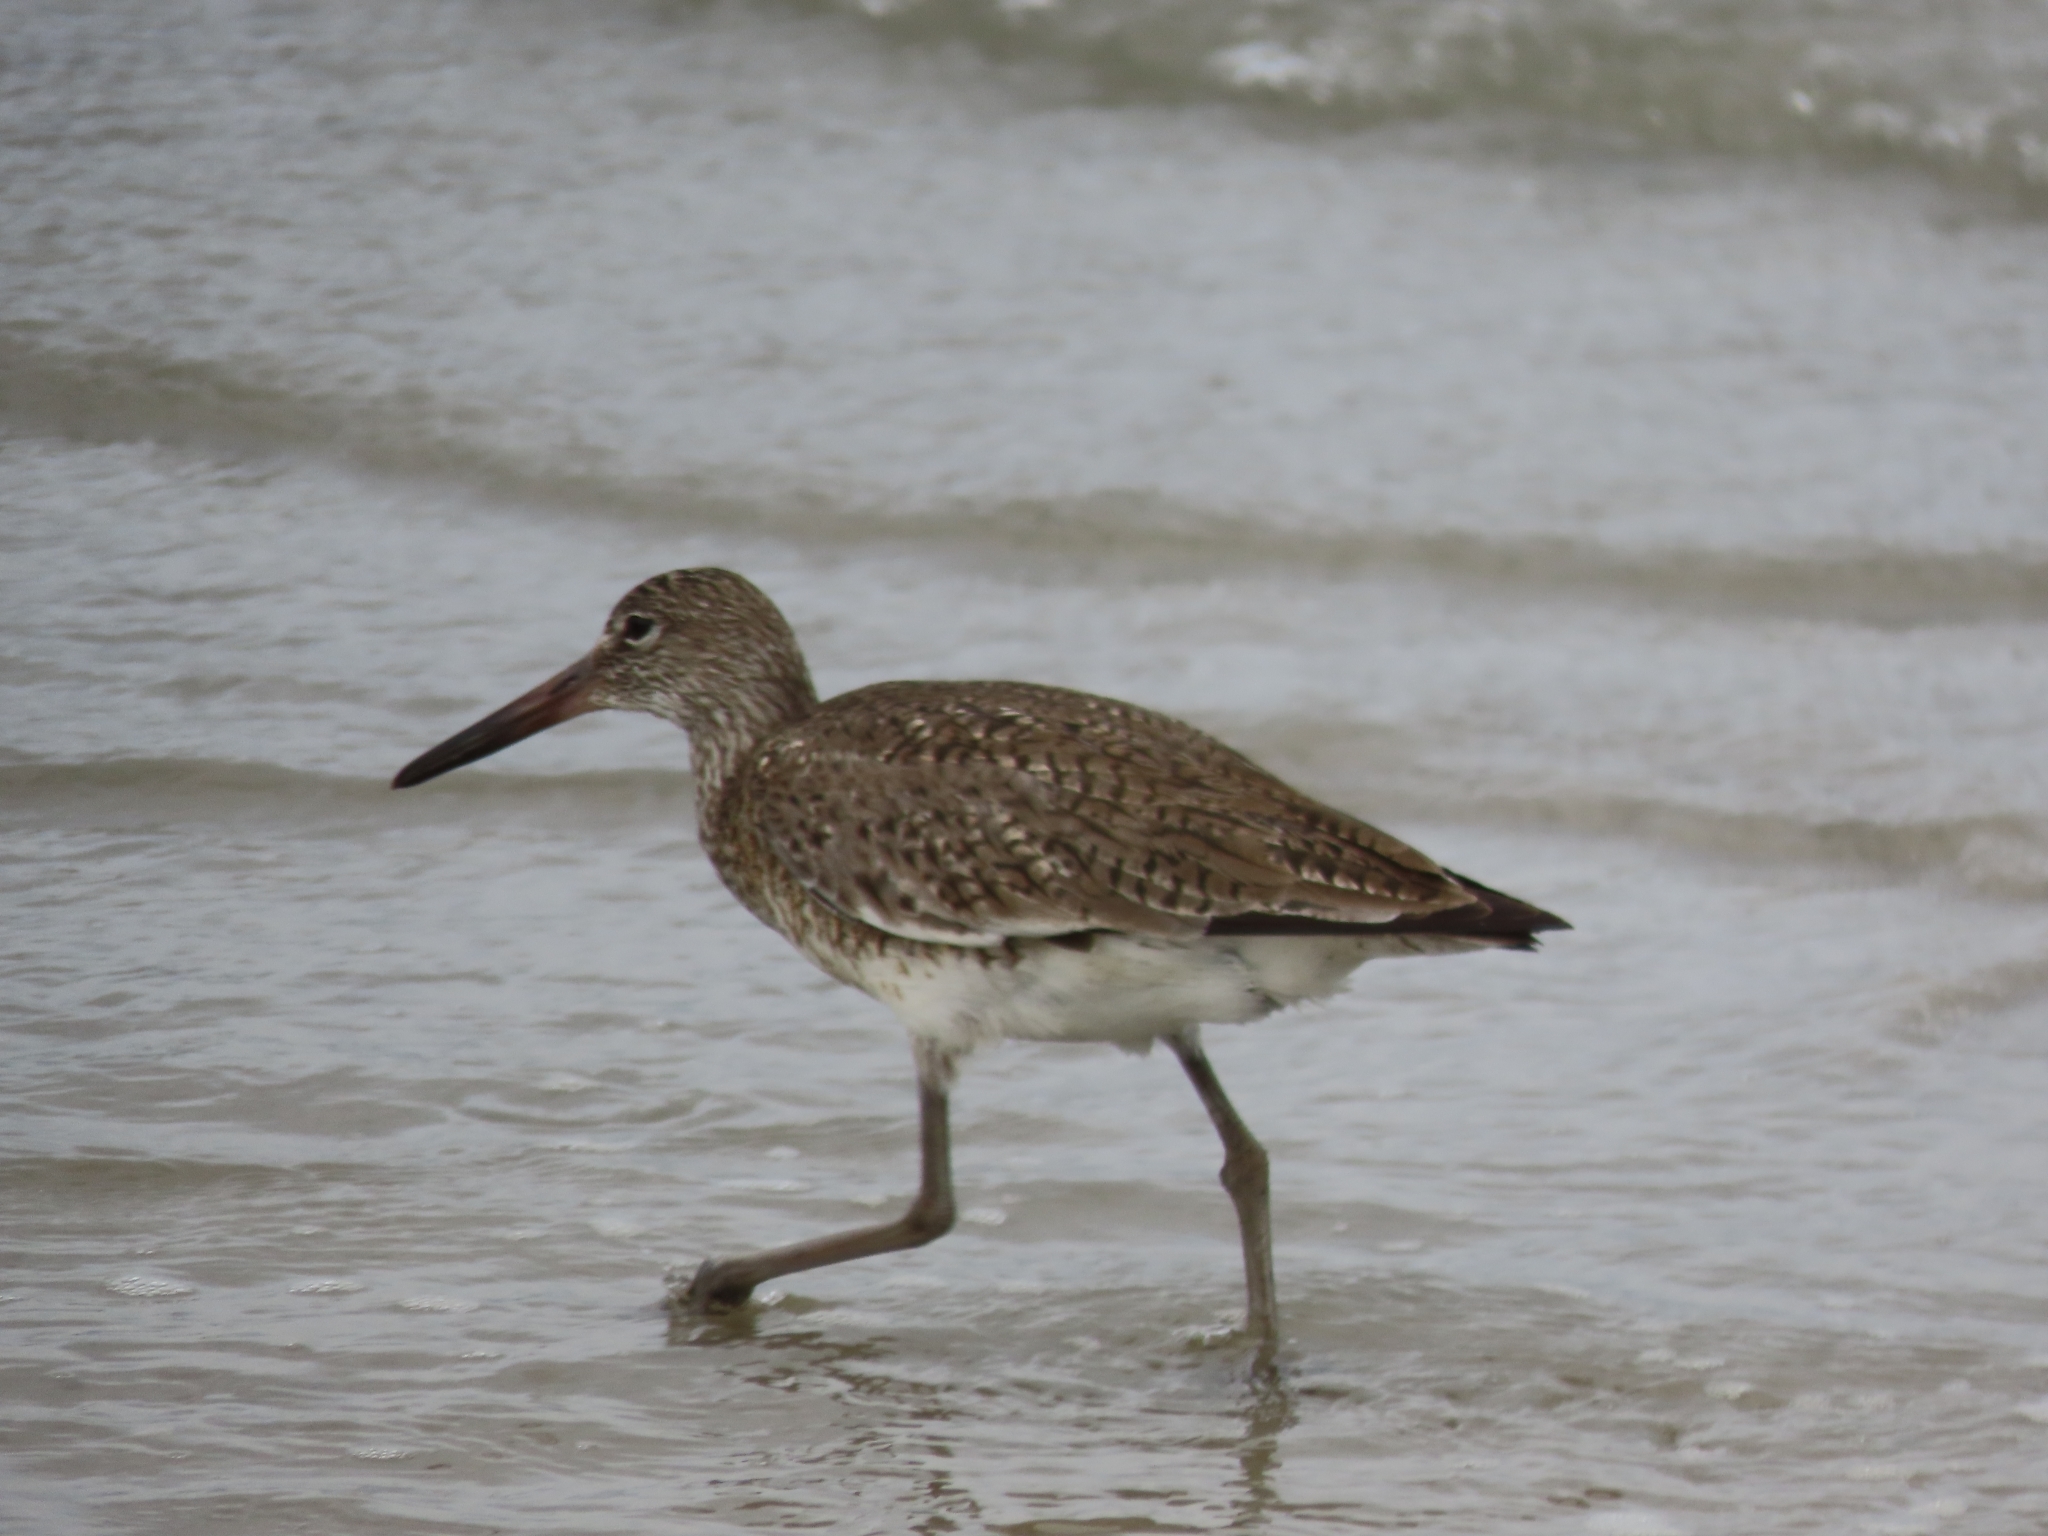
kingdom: Animalia
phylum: Chordata
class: Aves
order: Charadriiformes
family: Scolopacidae
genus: Tringa
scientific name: Tringa semipalmata
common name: Willet
